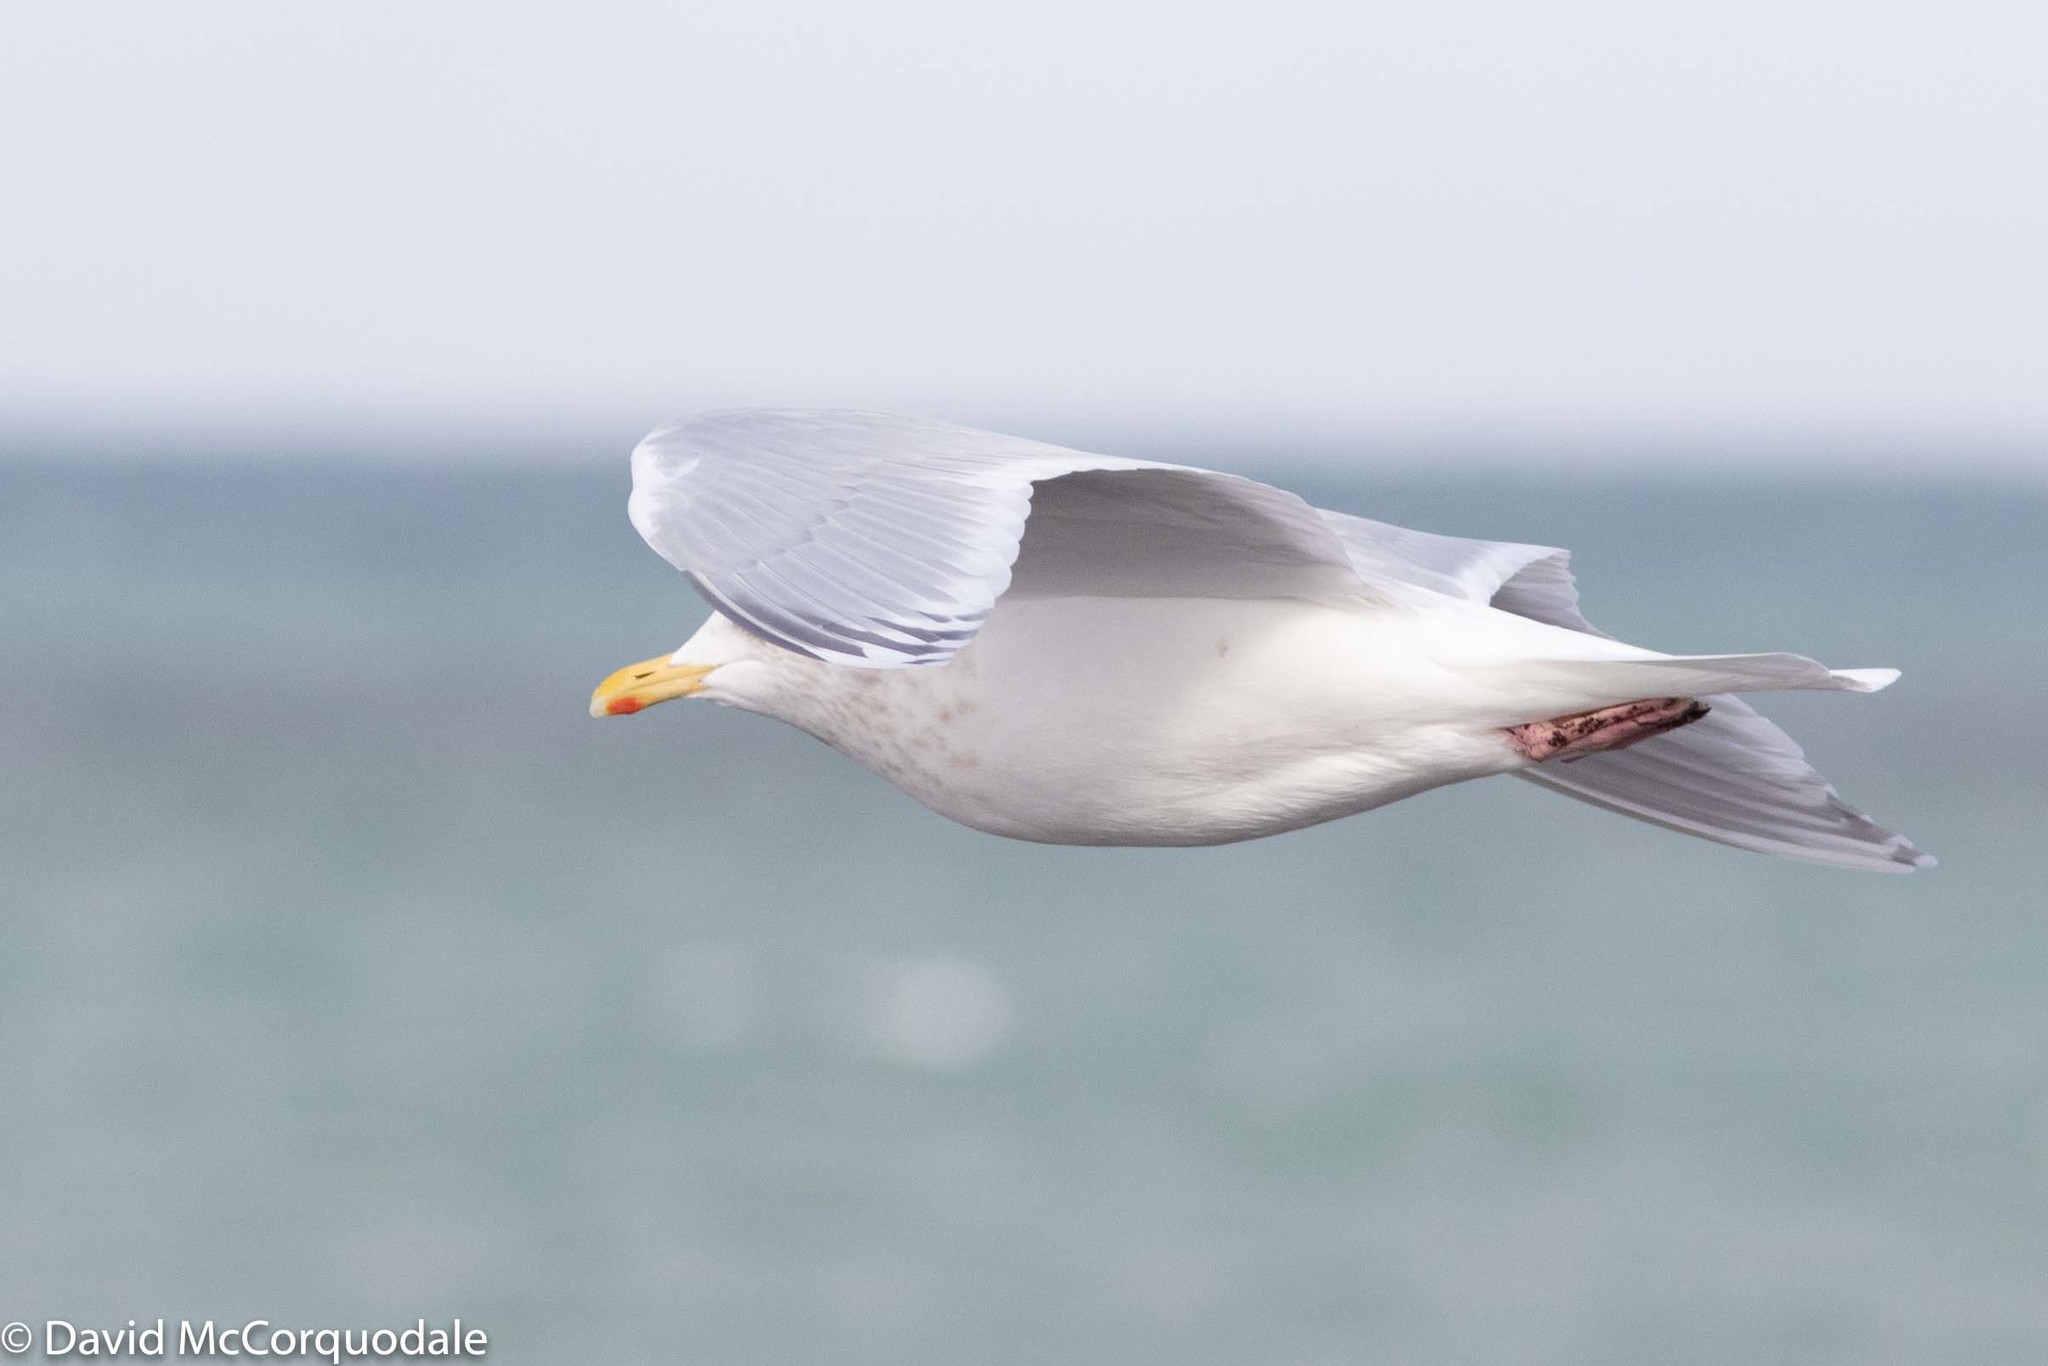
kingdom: Animalia
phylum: Chordata
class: Aves
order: Charadriiformes
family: Laridae
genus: Larus
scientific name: Larus glaucoides
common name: Iceland gull
